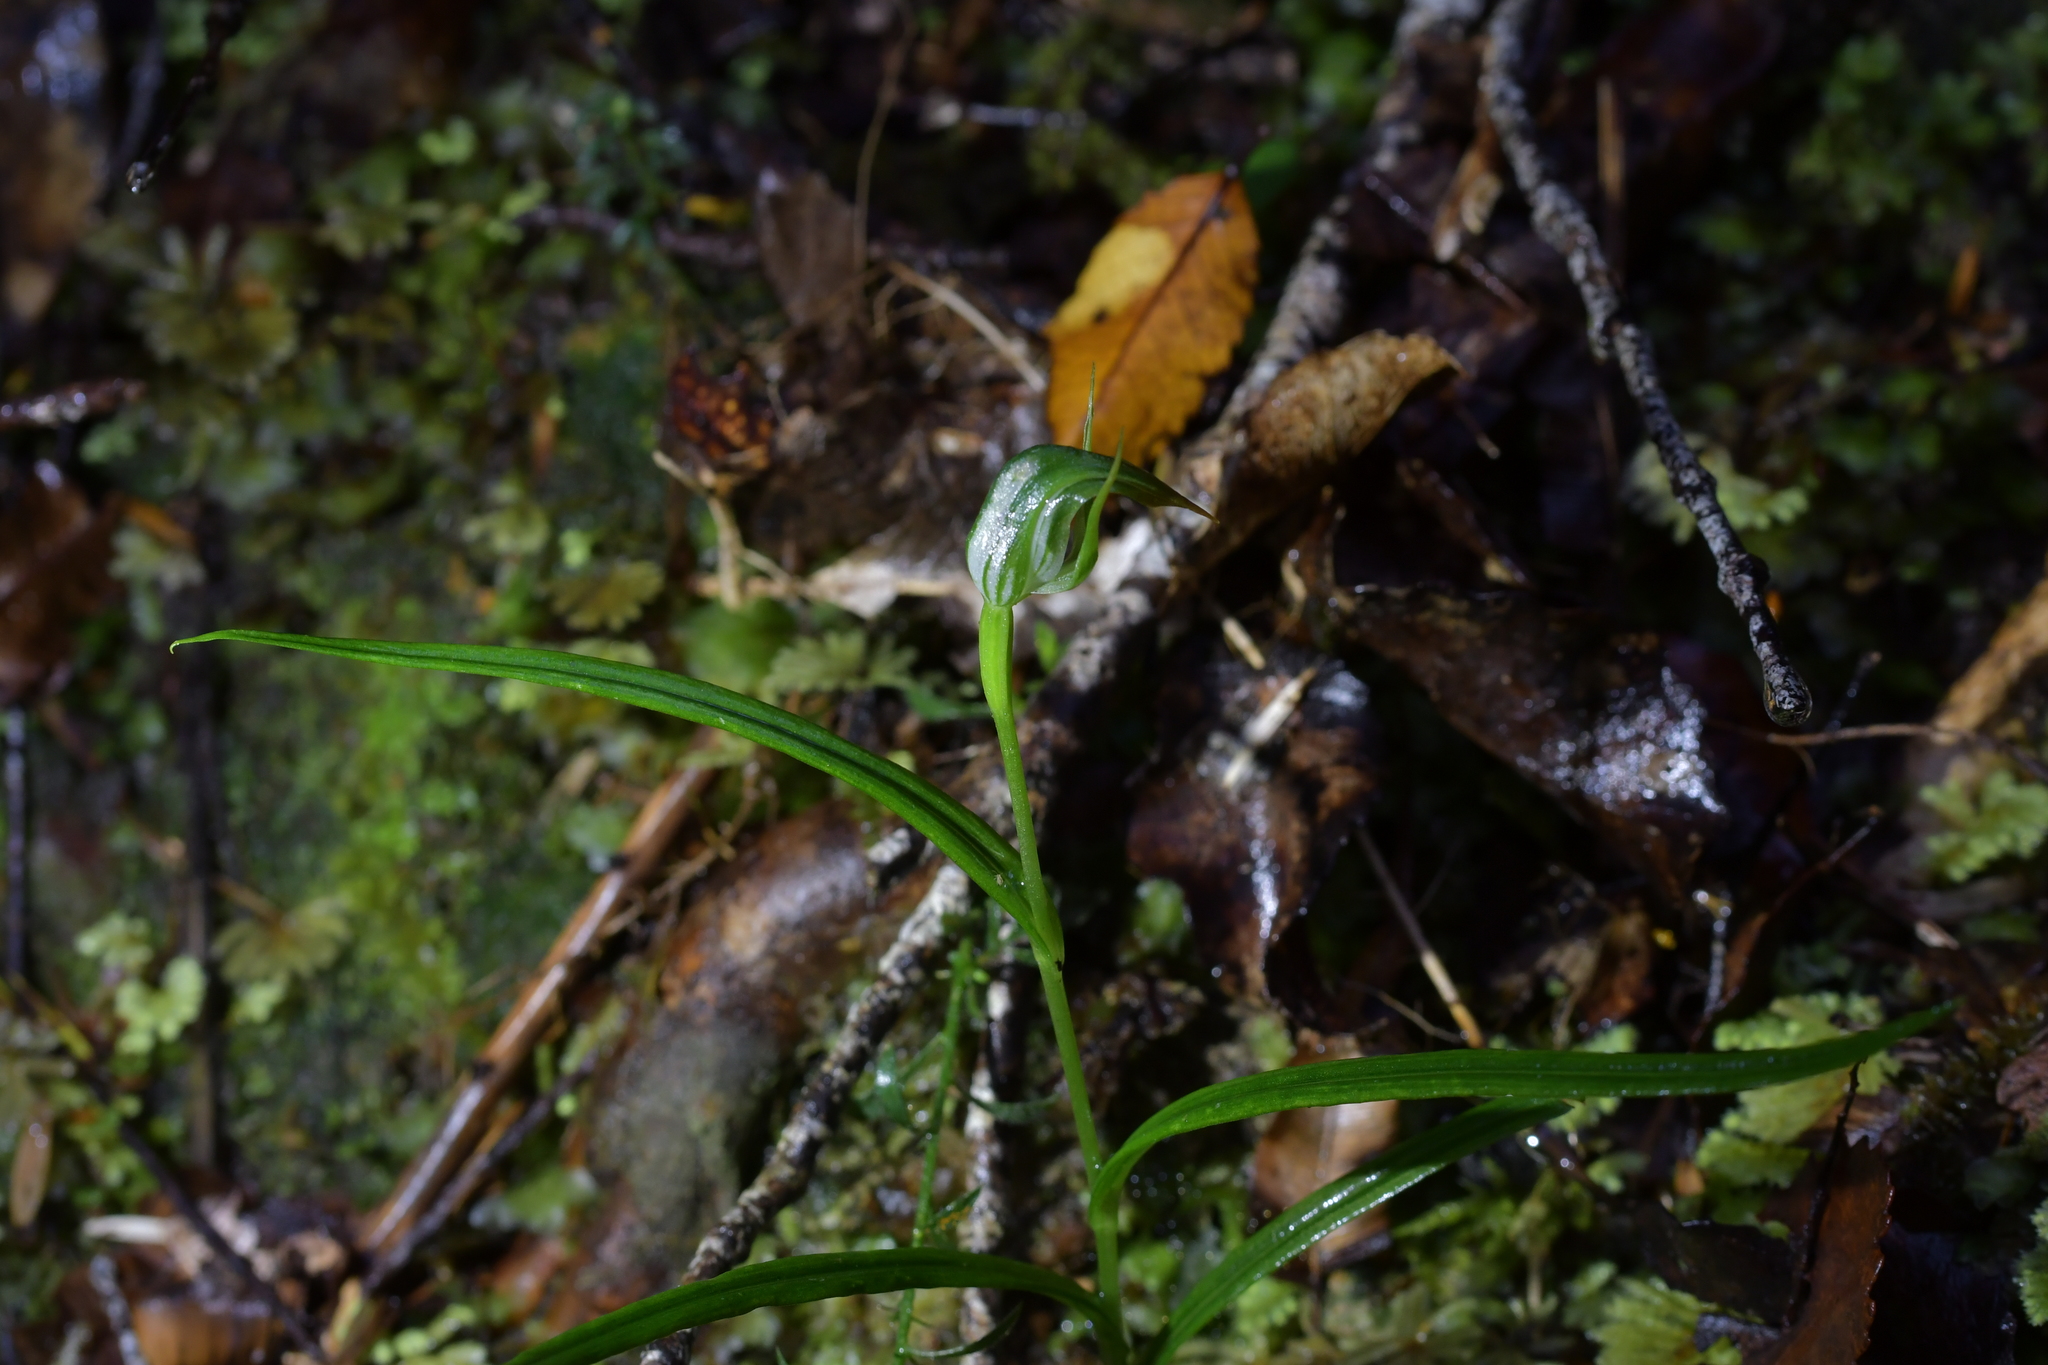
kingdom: Plantae
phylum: Tracheophyta
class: Liliopsida
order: Asparagales
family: Orchidaceae
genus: Pterostylis
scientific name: Pterostylis graminea
